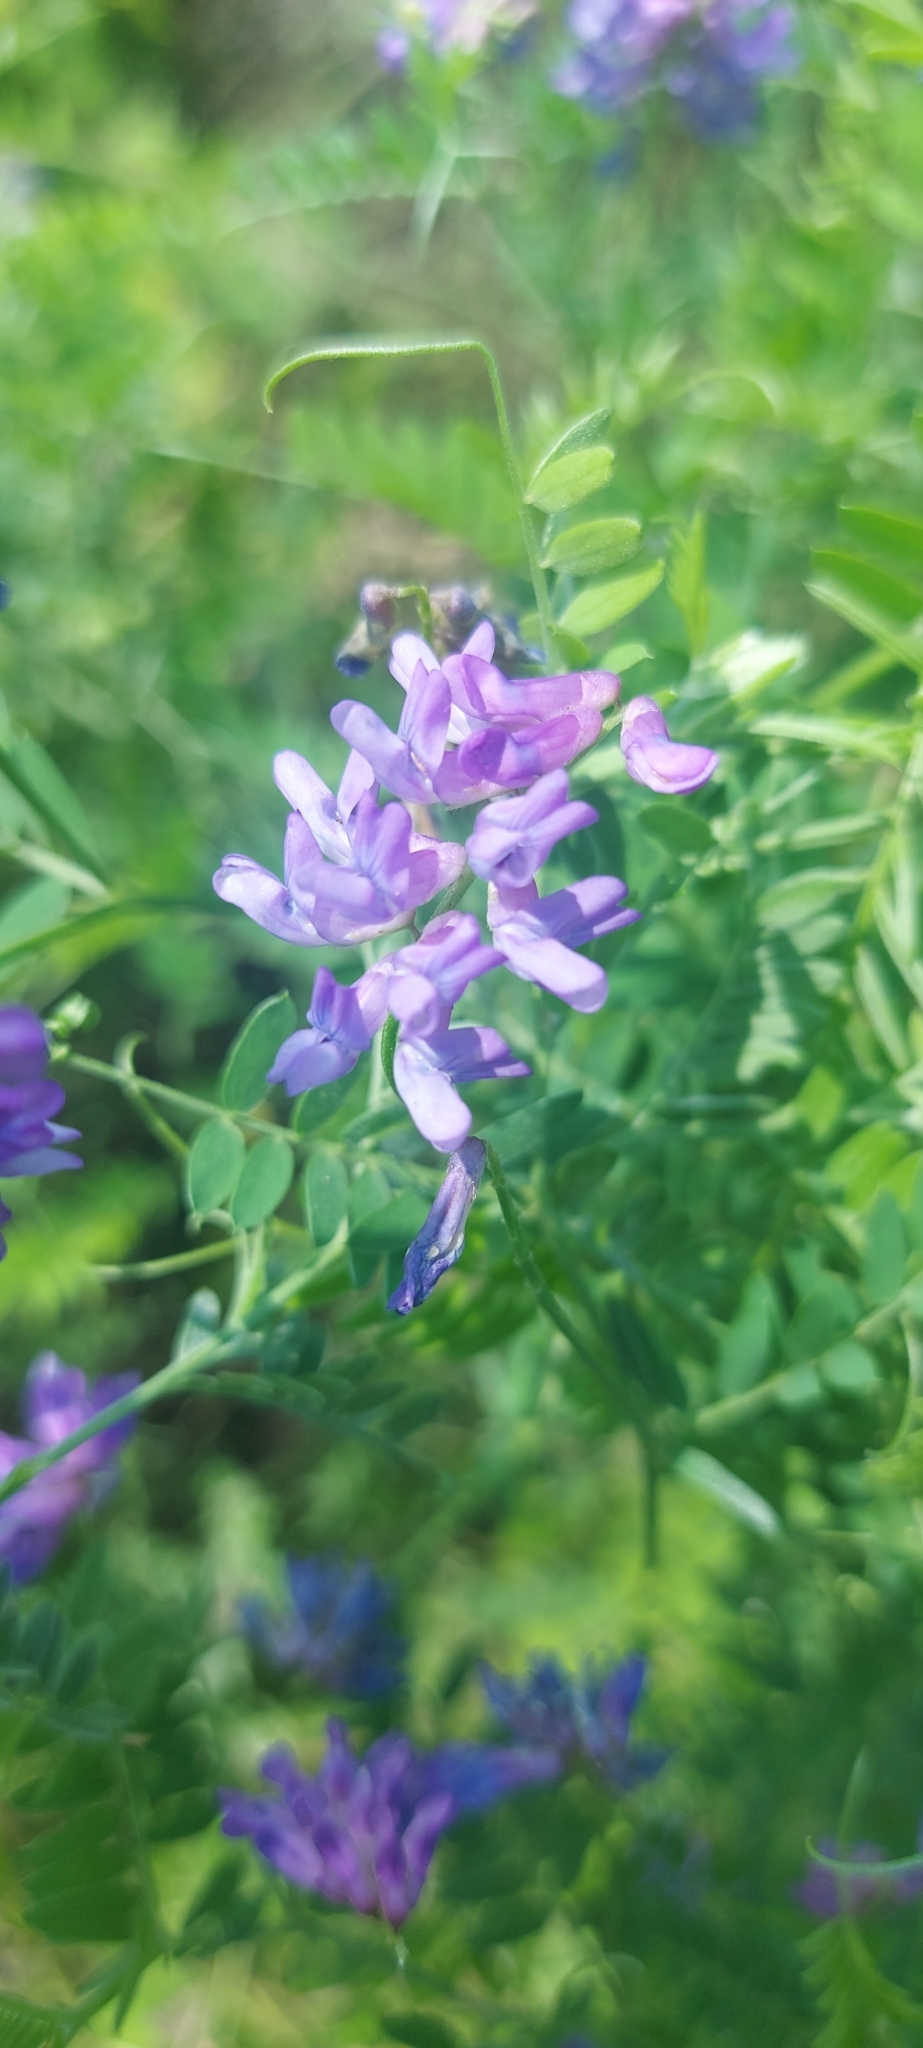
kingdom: Plantae
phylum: Tracheophyta
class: Magnoliopsida
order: Fabales
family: Fabaceae
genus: Vicia
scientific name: Vicia cracca
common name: Bird vetch
